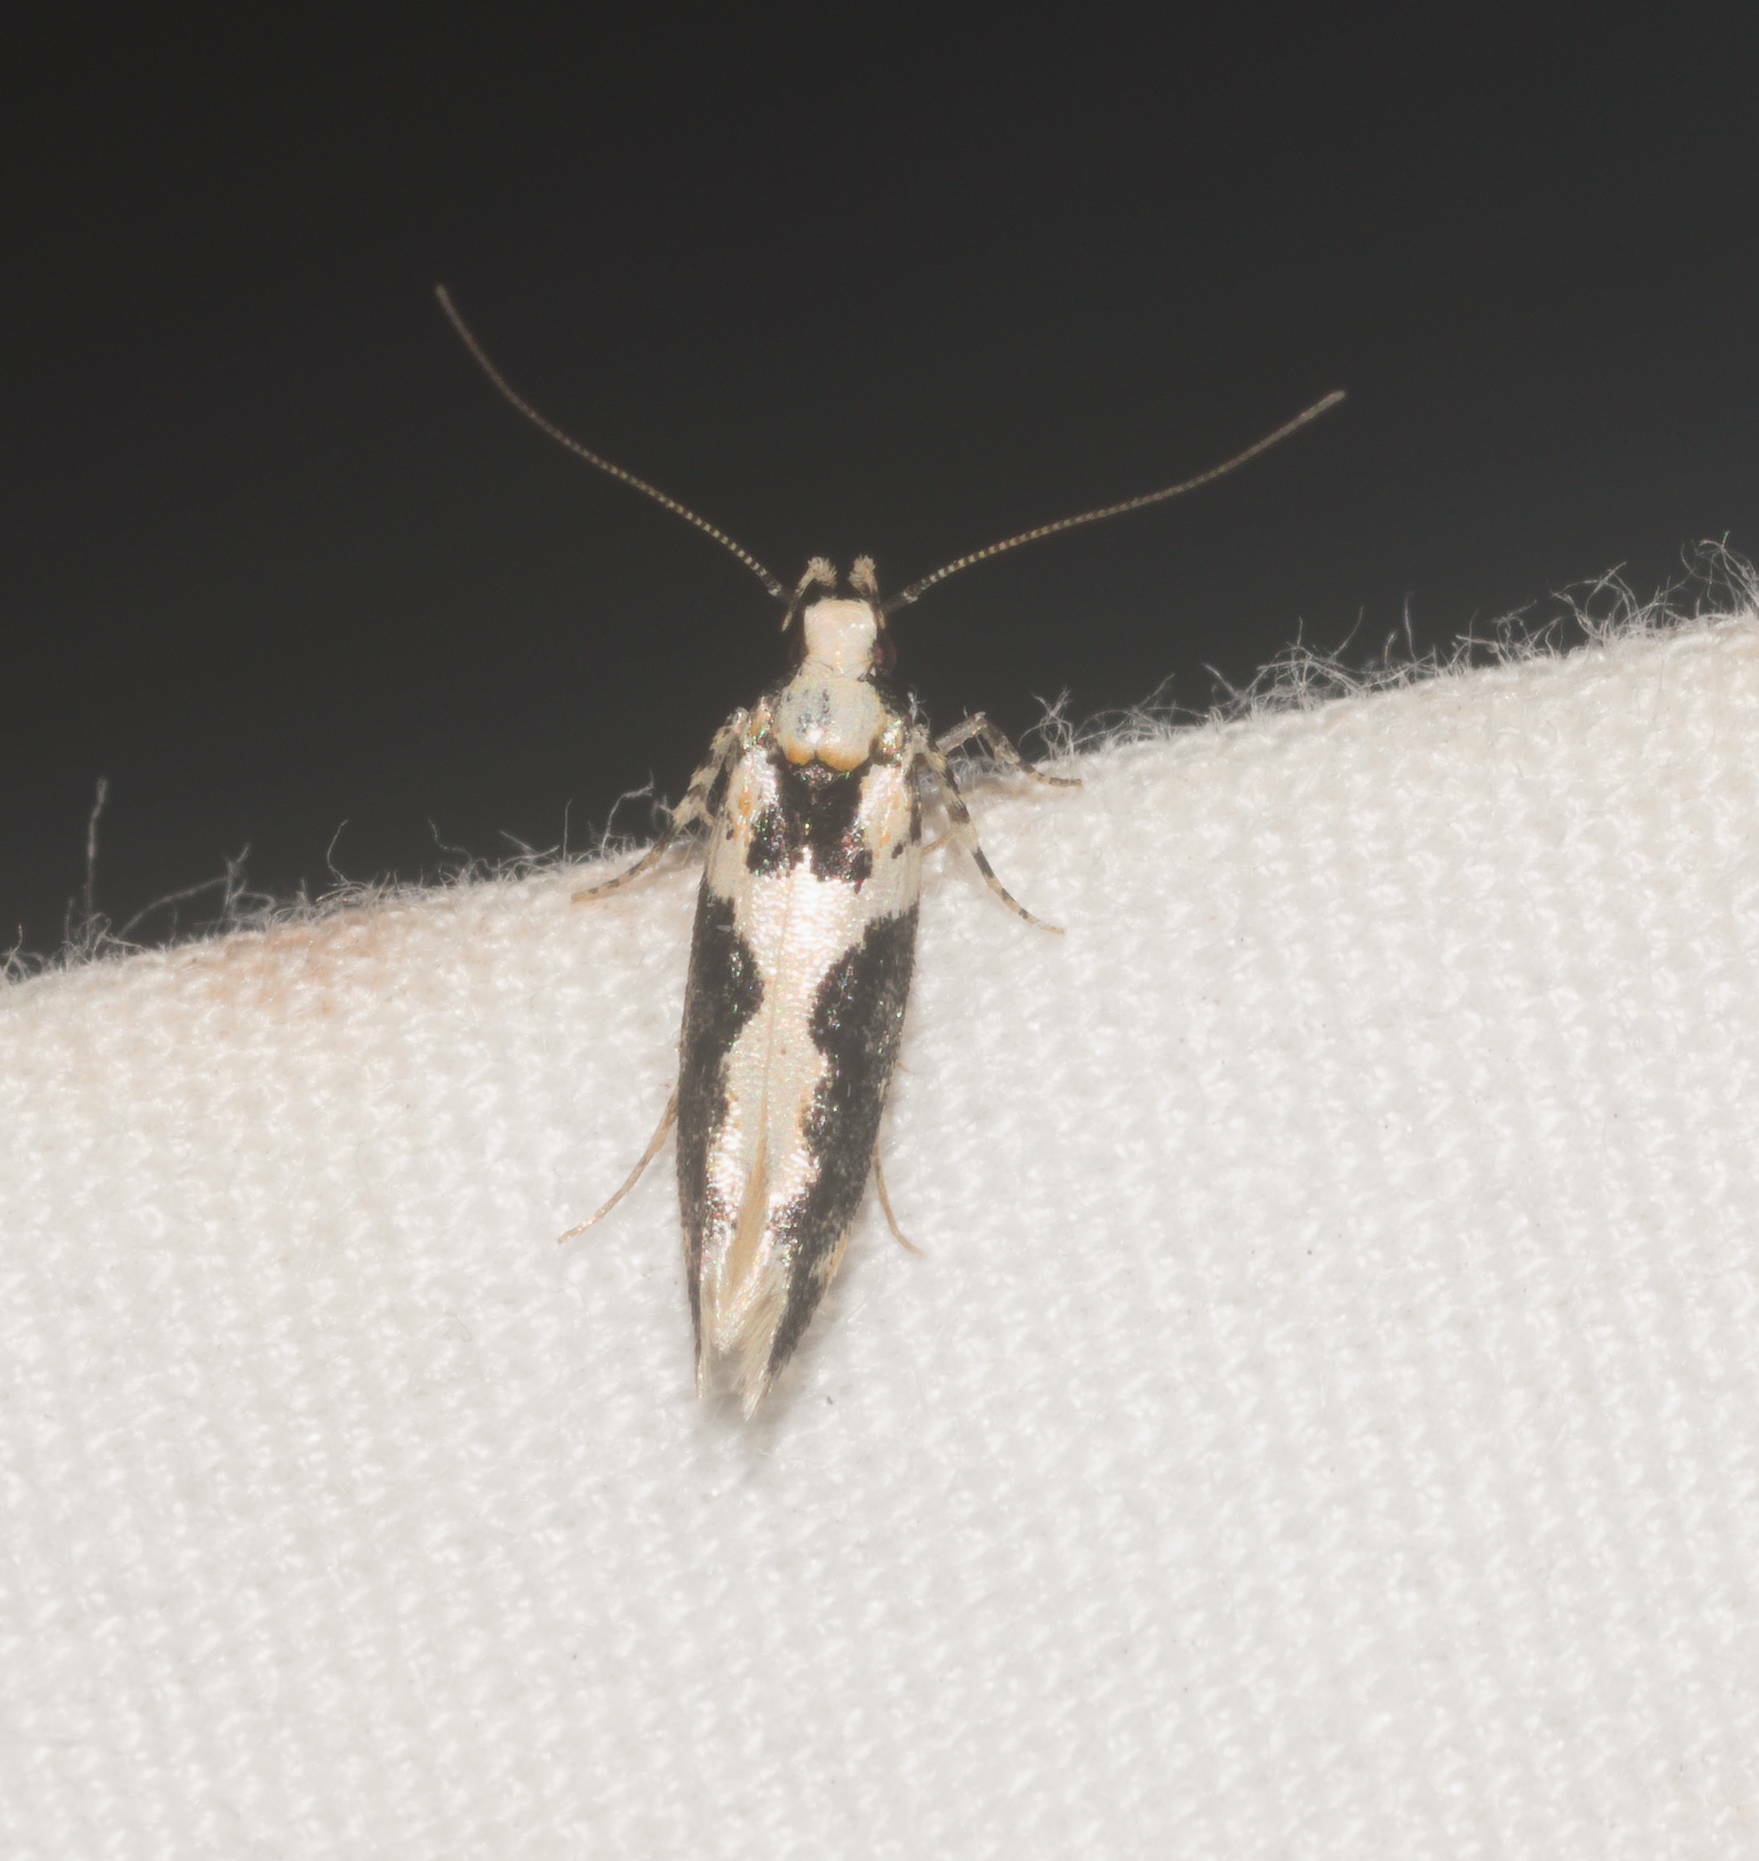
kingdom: Animalia
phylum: Arthropoda
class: Insecta
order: Lepidoptera
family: Cosmopterigidae
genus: Hyposmochoma
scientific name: Hyposmochoma nebulifera
